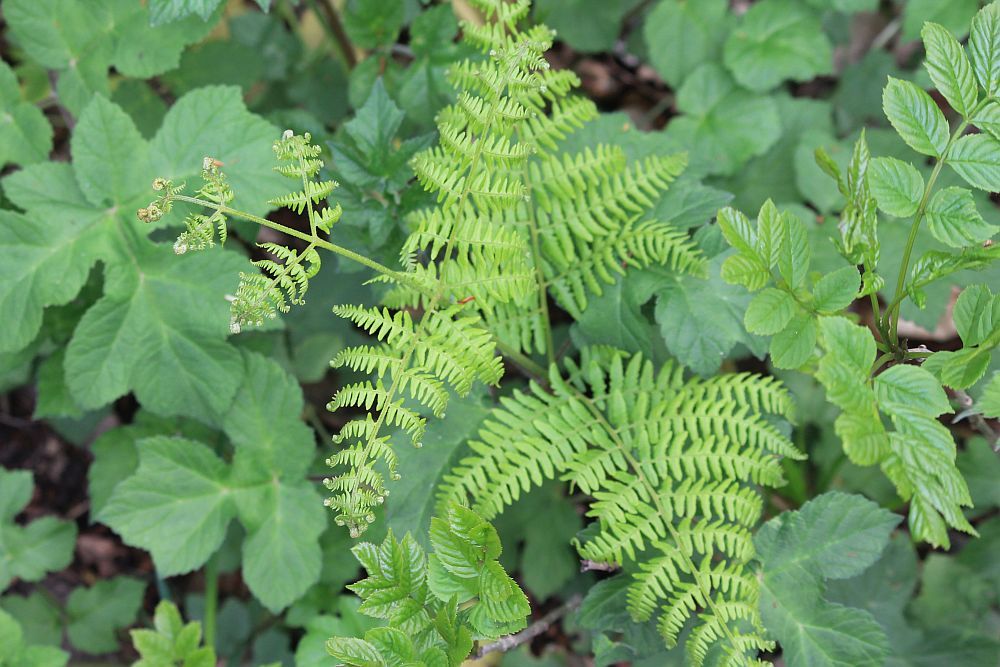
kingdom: Plantae
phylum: Tracheophyta
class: Polypodiopsida
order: Polypodiales
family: Dennstaedtiaceae
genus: Pteridium
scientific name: Pteridium aquilinum
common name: Bracken
